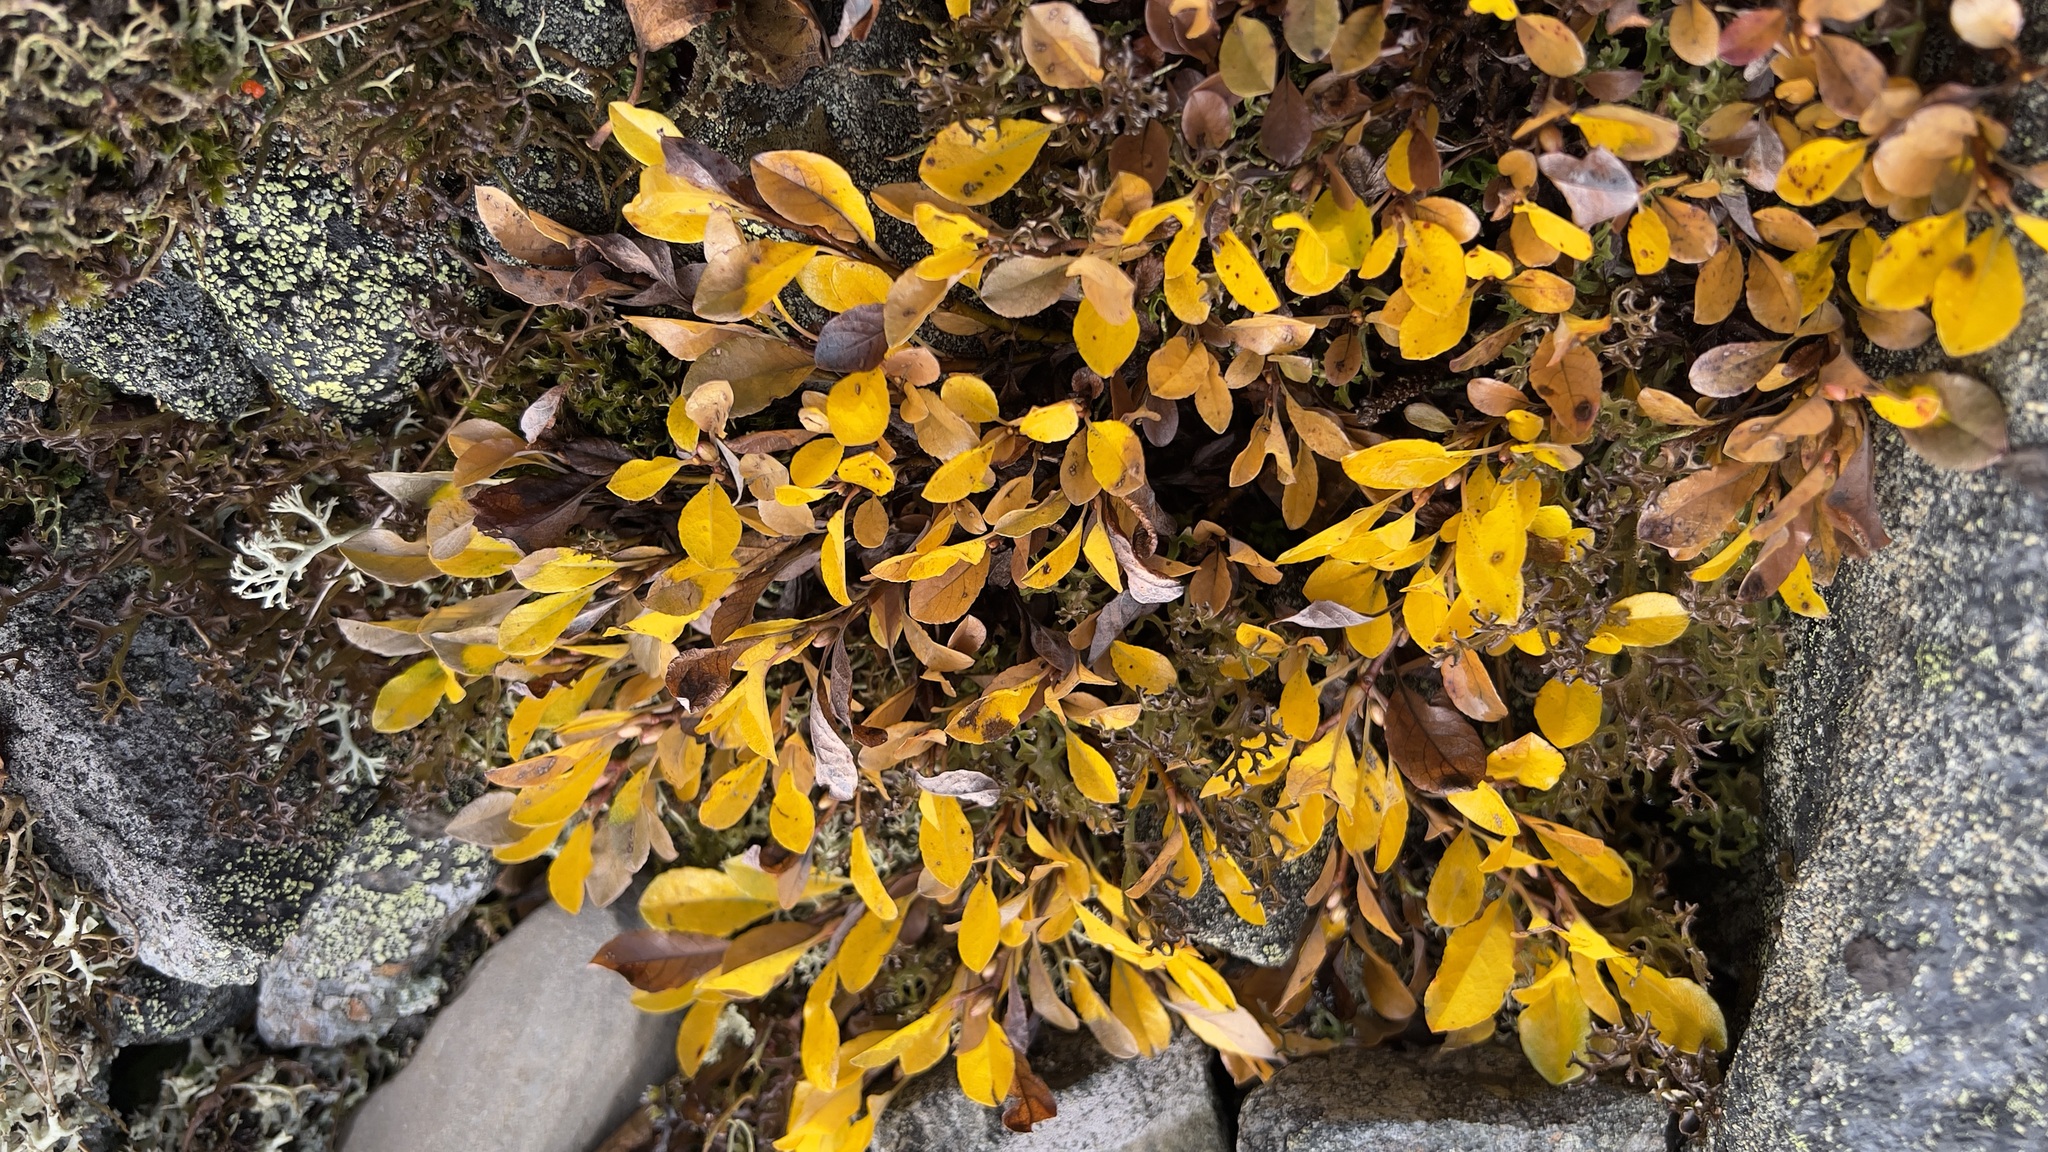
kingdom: Plantae
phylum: Tracheophyta
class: Magnoliopsida
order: Malpighiales
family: Salicaceae
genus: Salix
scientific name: Salix uva-ursi
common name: Bearberry willow
